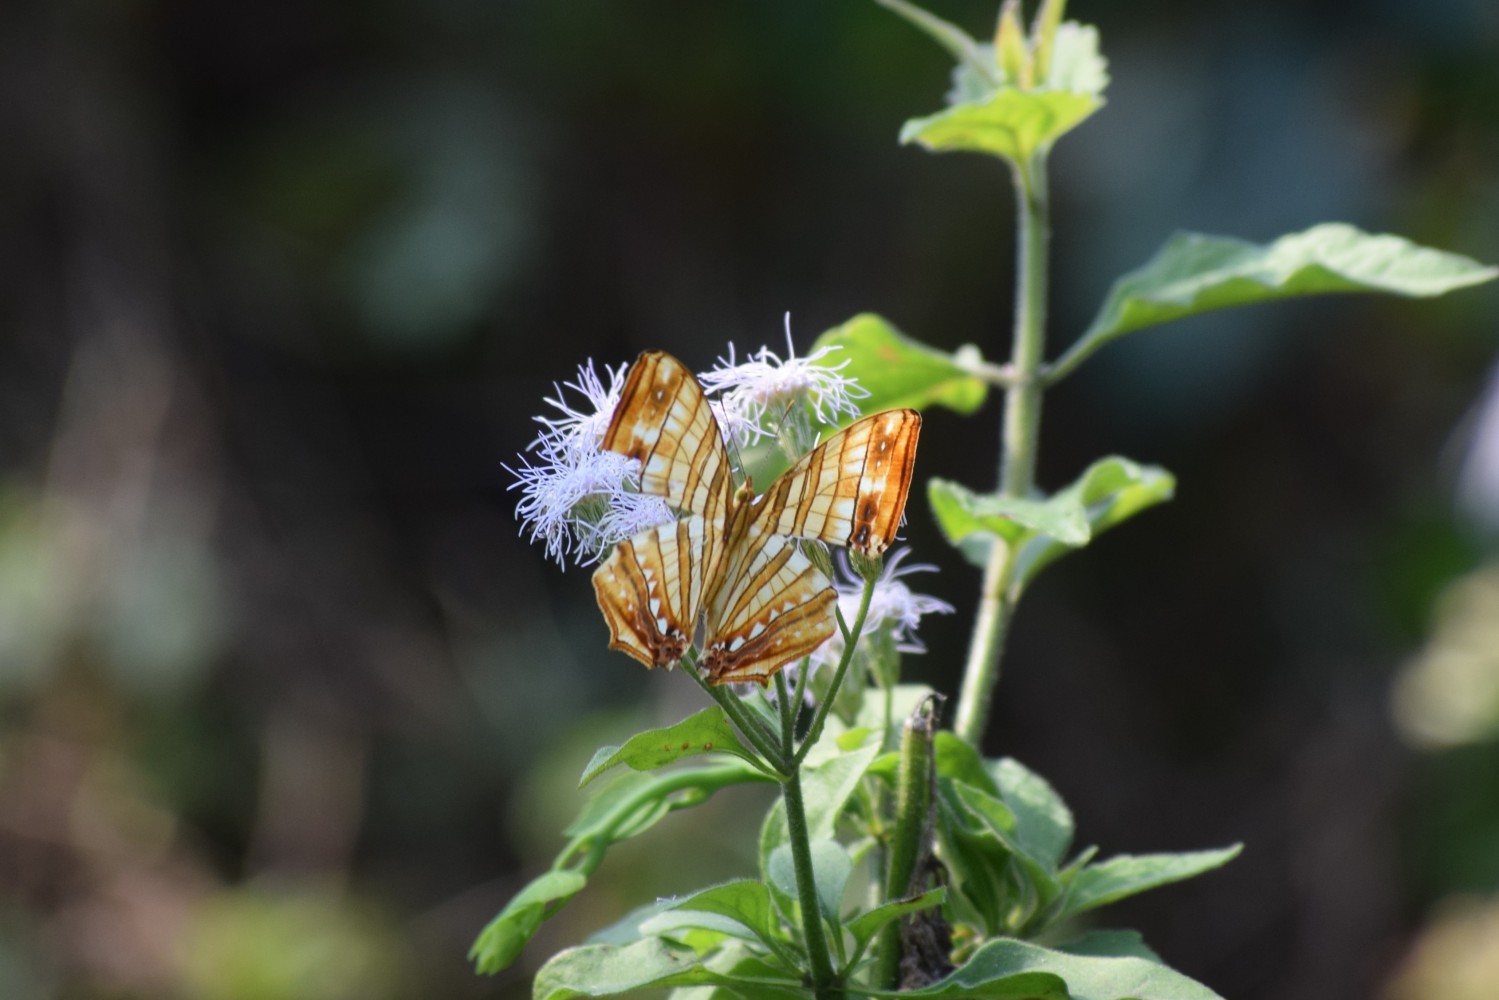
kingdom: Animalia
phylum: Arthropoda
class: Insecta
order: Lepidoptera
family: Nymphalidae
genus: Chersonesia
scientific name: Chersonesia risa
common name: Common maplet
